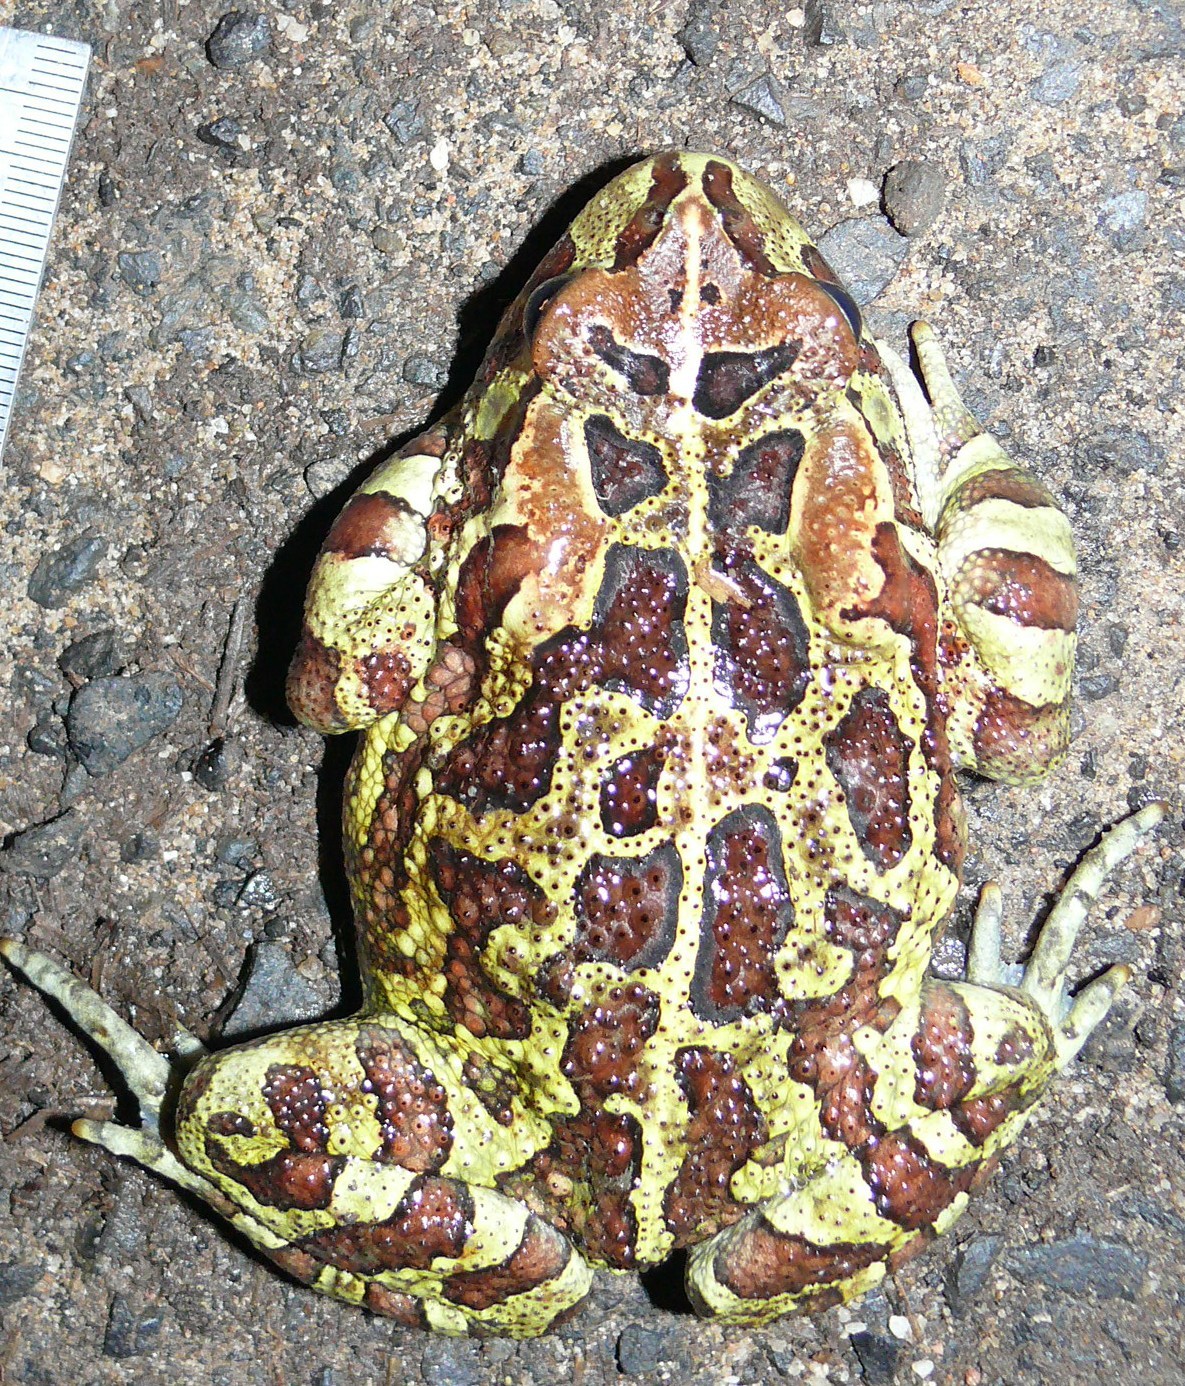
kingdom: Animalia
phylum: Chordata
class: Amphibia
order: Anura
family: Bufonidae
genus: Sclerophrys
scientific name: Sclerophrys pantherina
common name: Panther toad
